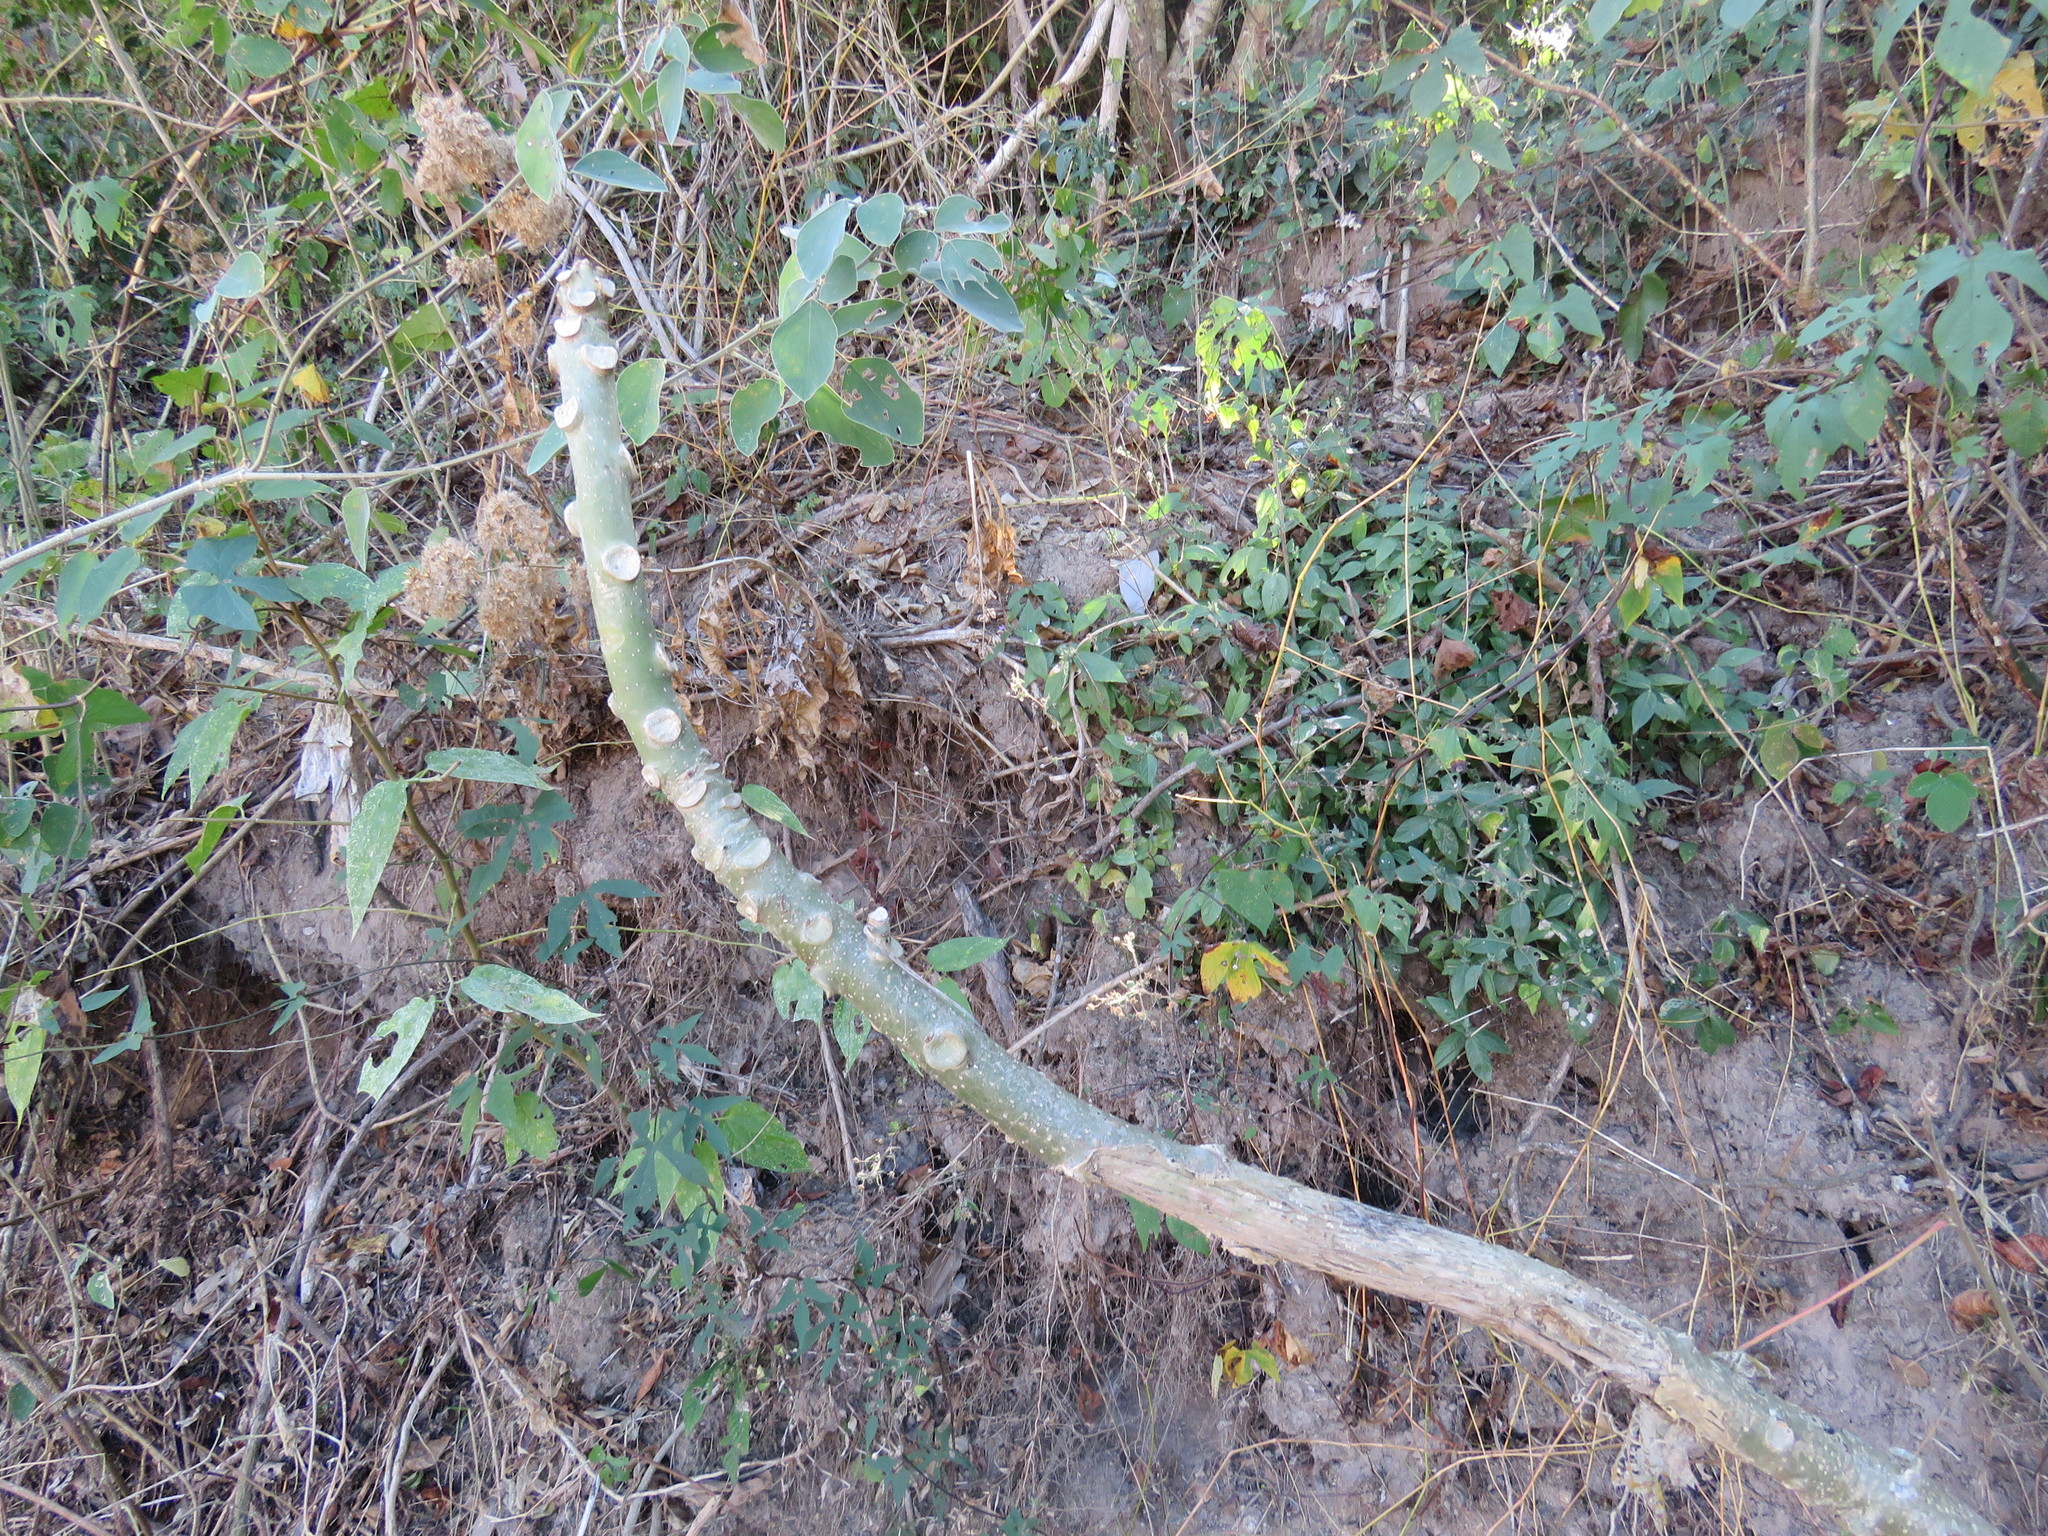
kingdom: Plantae
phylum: Tracheophyta
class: Magnoliopsida
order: Gentianales
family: Apocynaceae
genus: Plumeria
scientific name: Plumeria rubra
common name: Pagoda-tree
